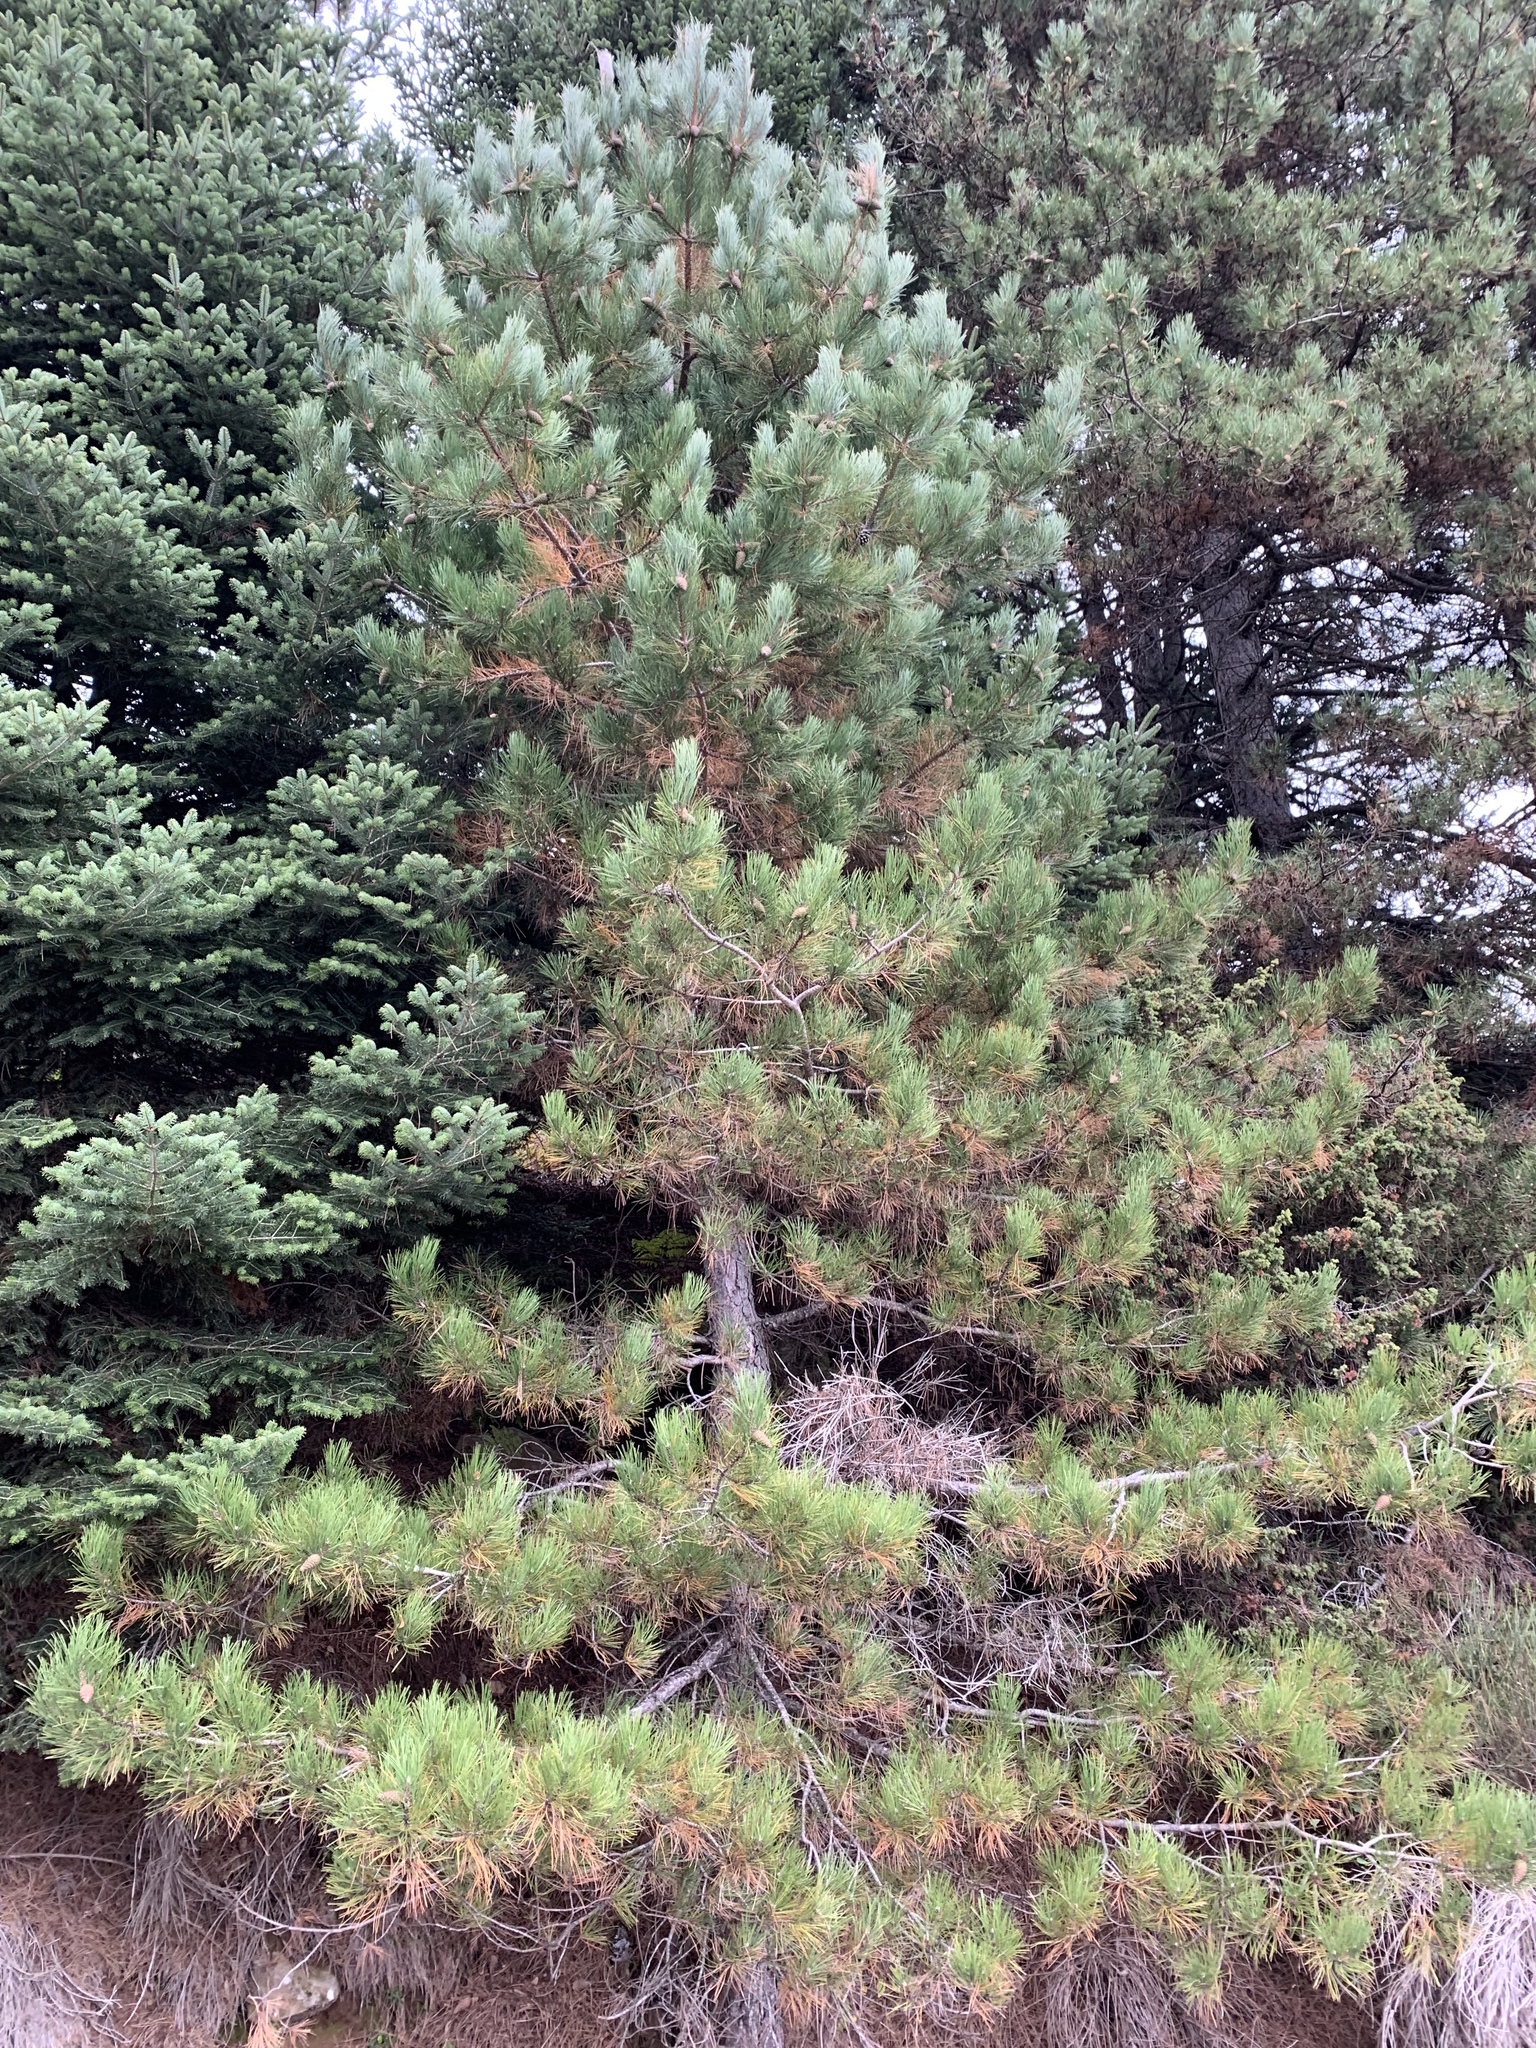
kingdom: Plantae
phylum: Tracheophyta
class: Pinopsida
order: Pinales
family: Pinaceae
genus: Pinus
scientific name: Pinus nigra
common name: Austrian pine
